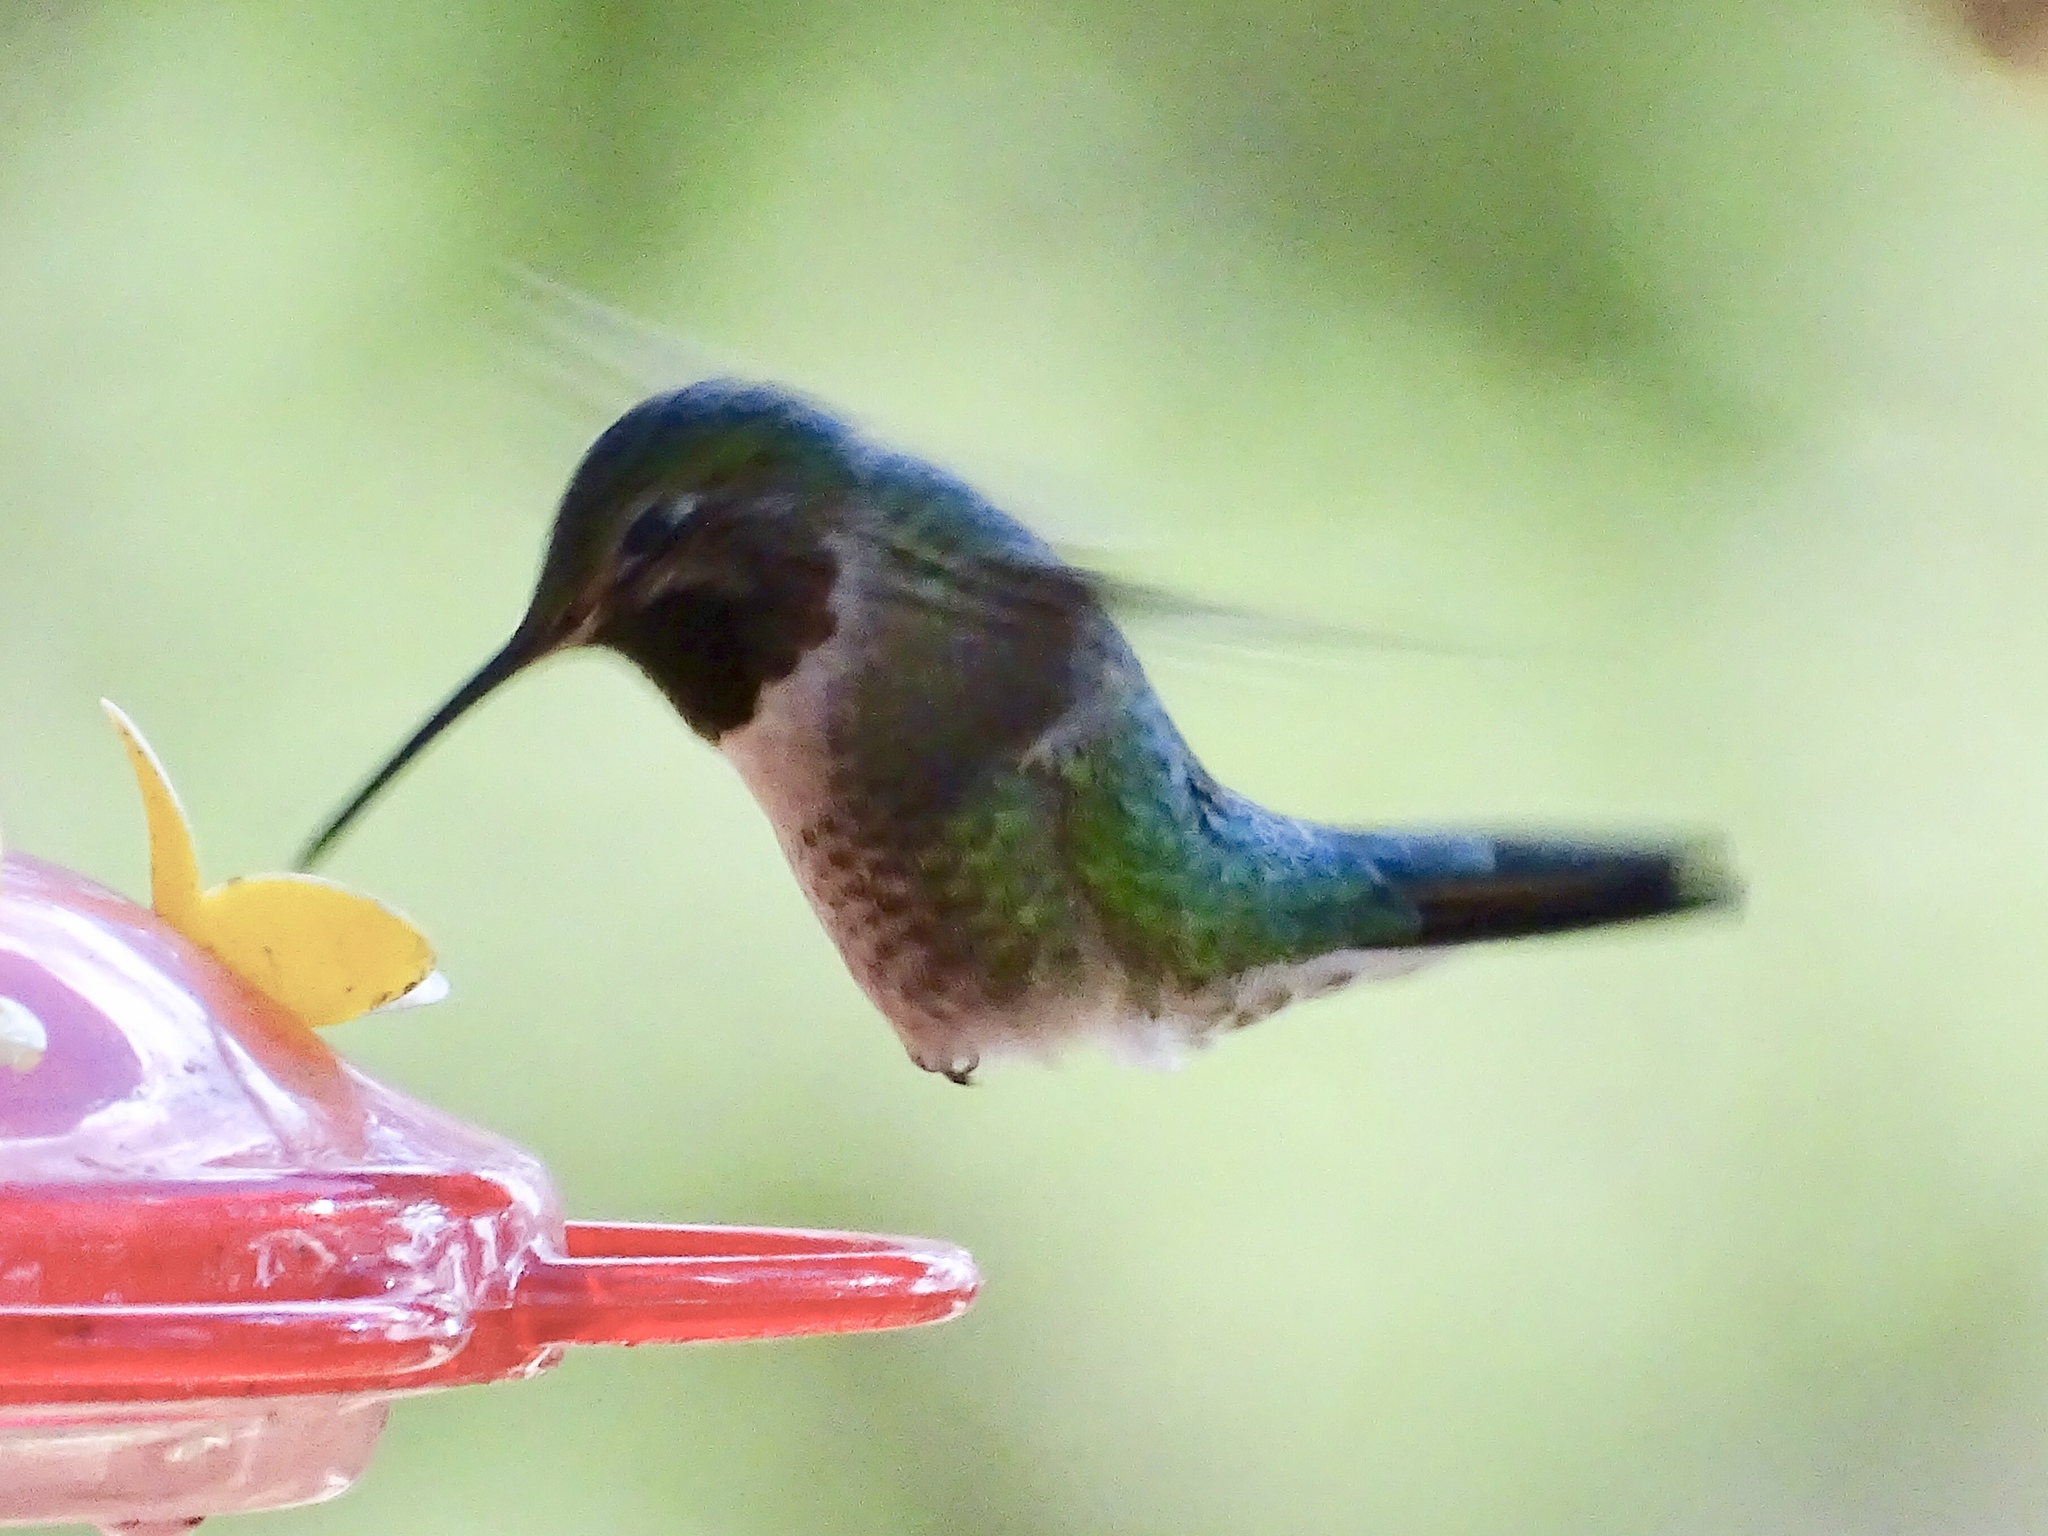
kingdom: Animalia
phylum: Chordata
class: Aves
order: Apodiformes
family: Trochilidae
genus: Selasphorus
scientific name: Selasphorus platycercus
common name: Broad-tailed hummingbird
